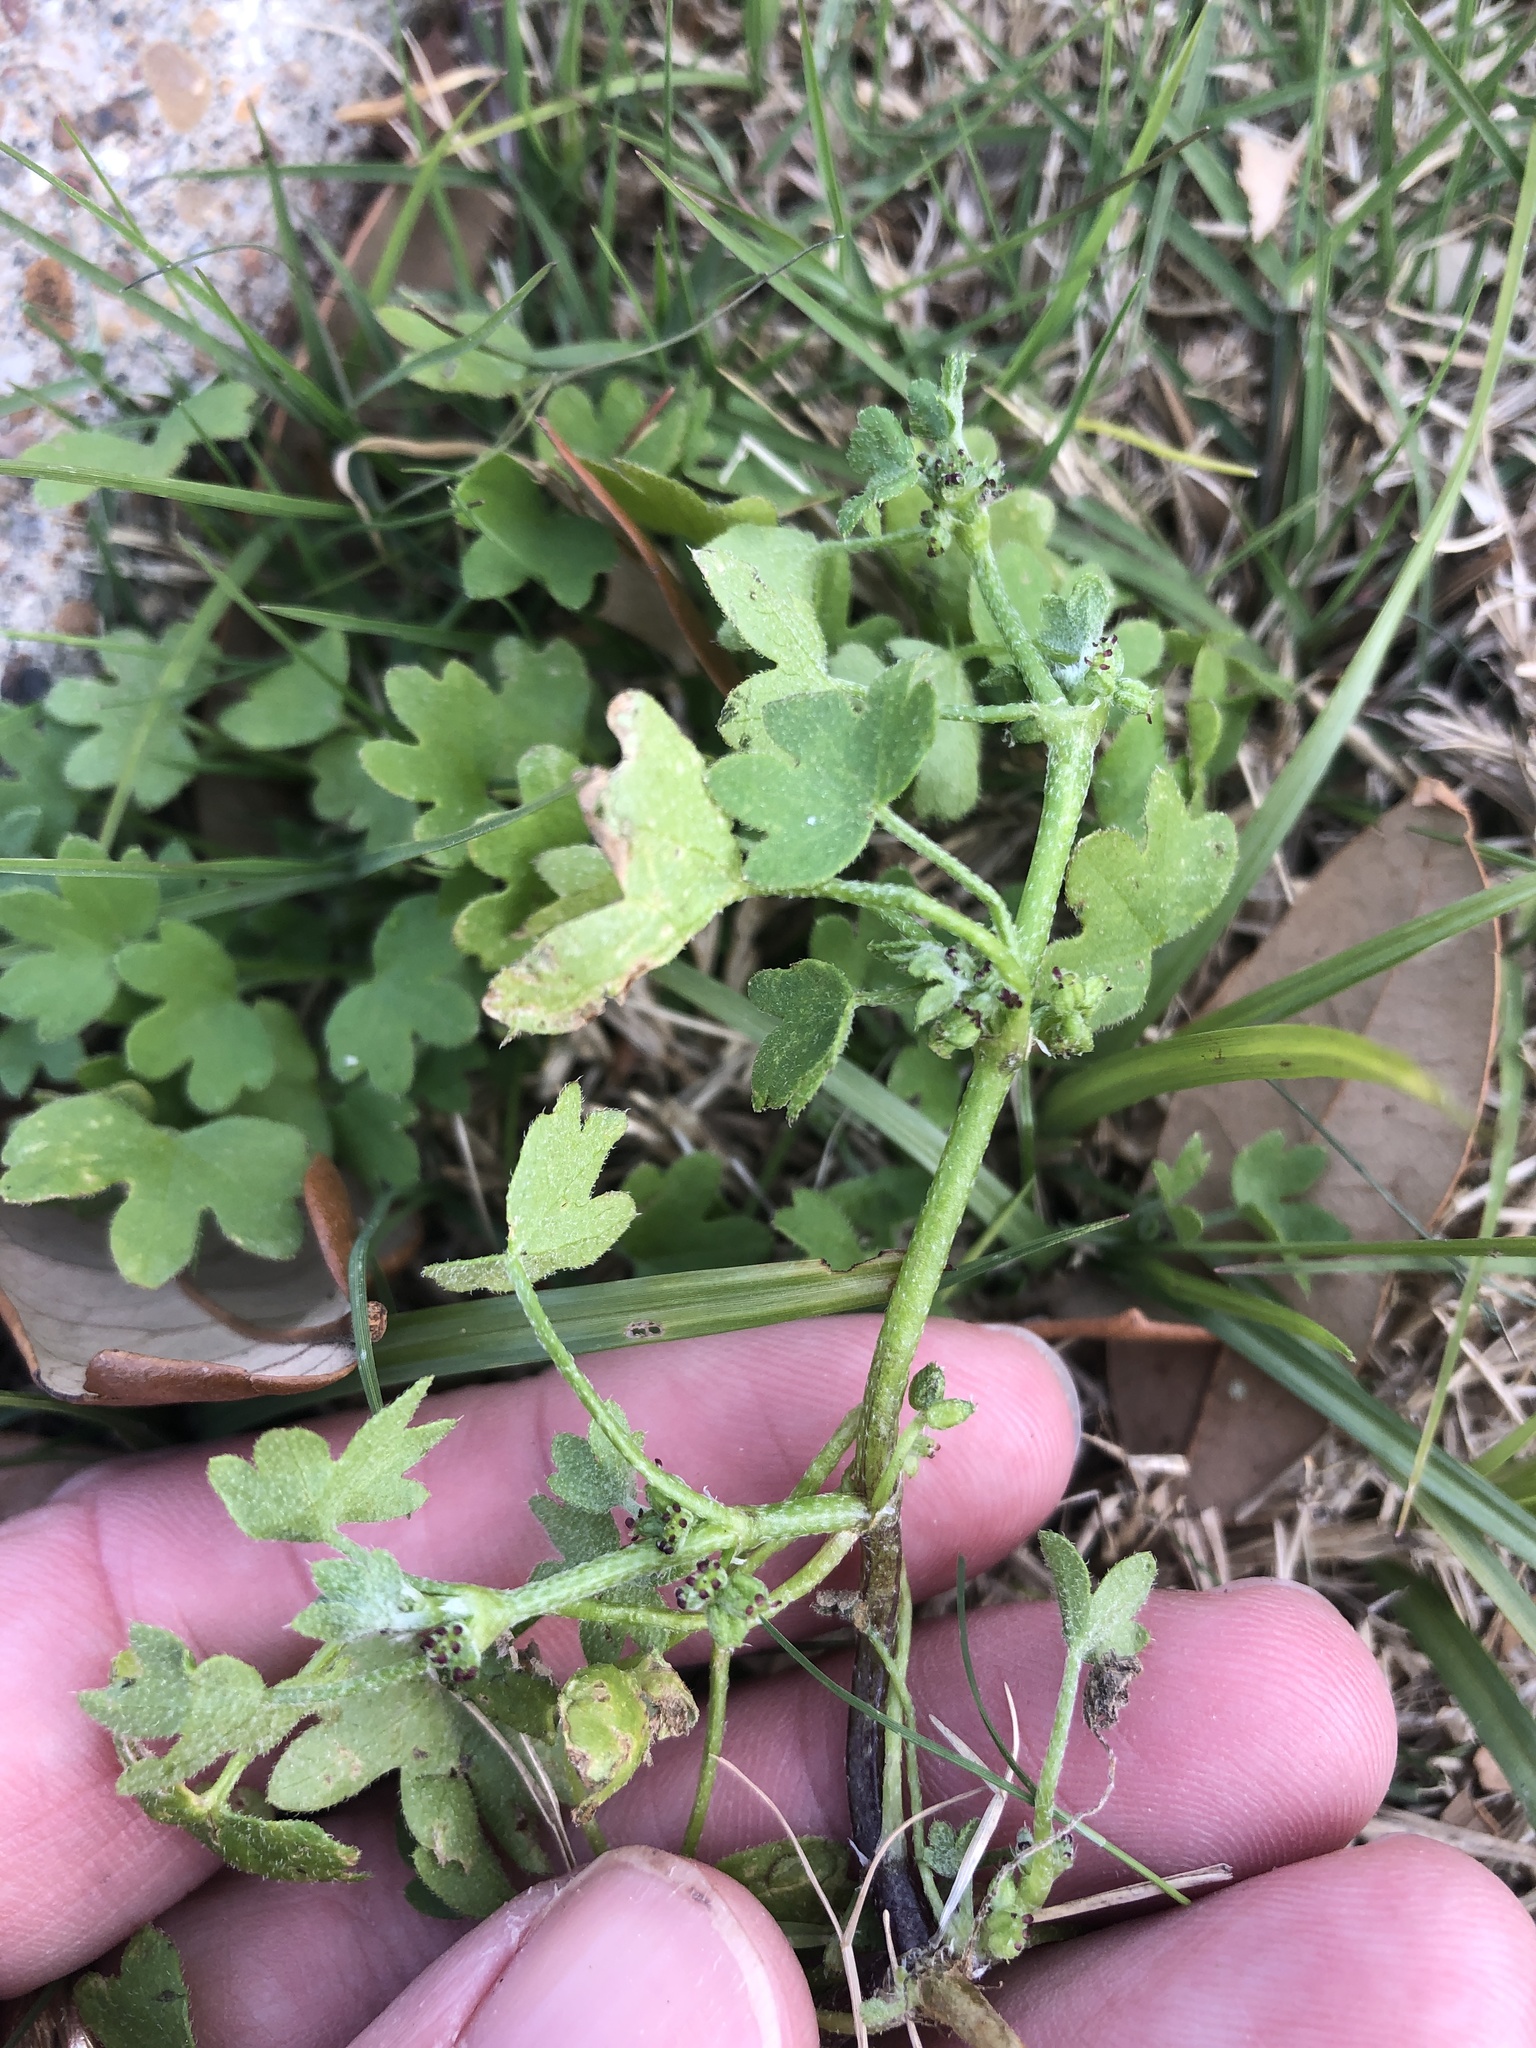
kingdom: Plantae
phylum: Tracheophyta
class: Magnoliopsida
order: Apiales
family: Apiaceae
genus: Bowlesia
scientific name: Bowlesia incana
